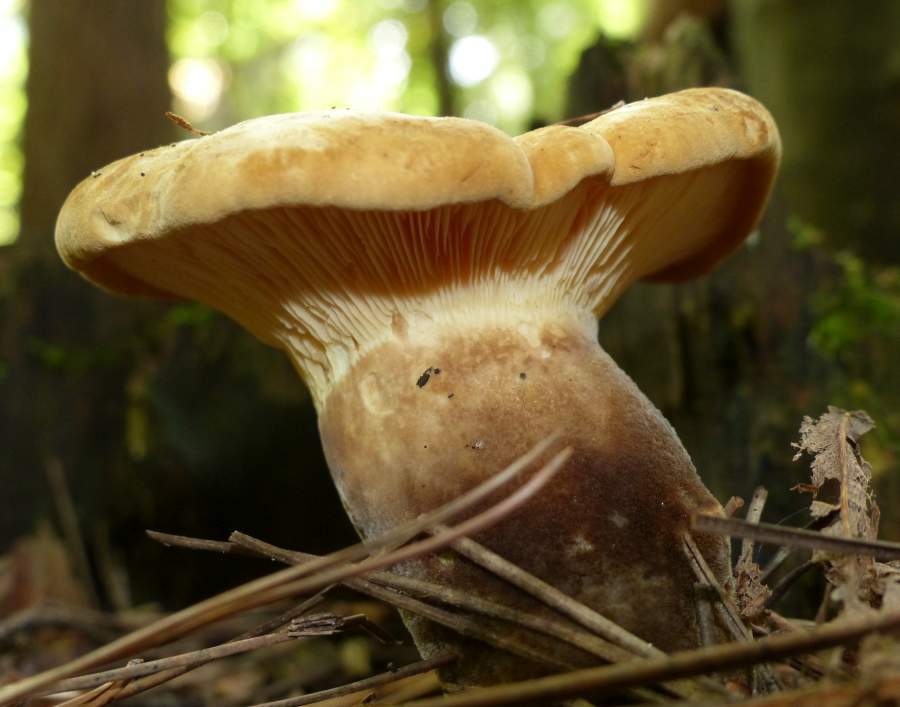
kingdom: Fungi
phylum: Basidiomycota
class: Agaricomycetes
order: Boletales
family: Tapinellaceae
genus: Tapinella
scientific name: Tapinella atrotomentosa
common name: Velvet rollrim
